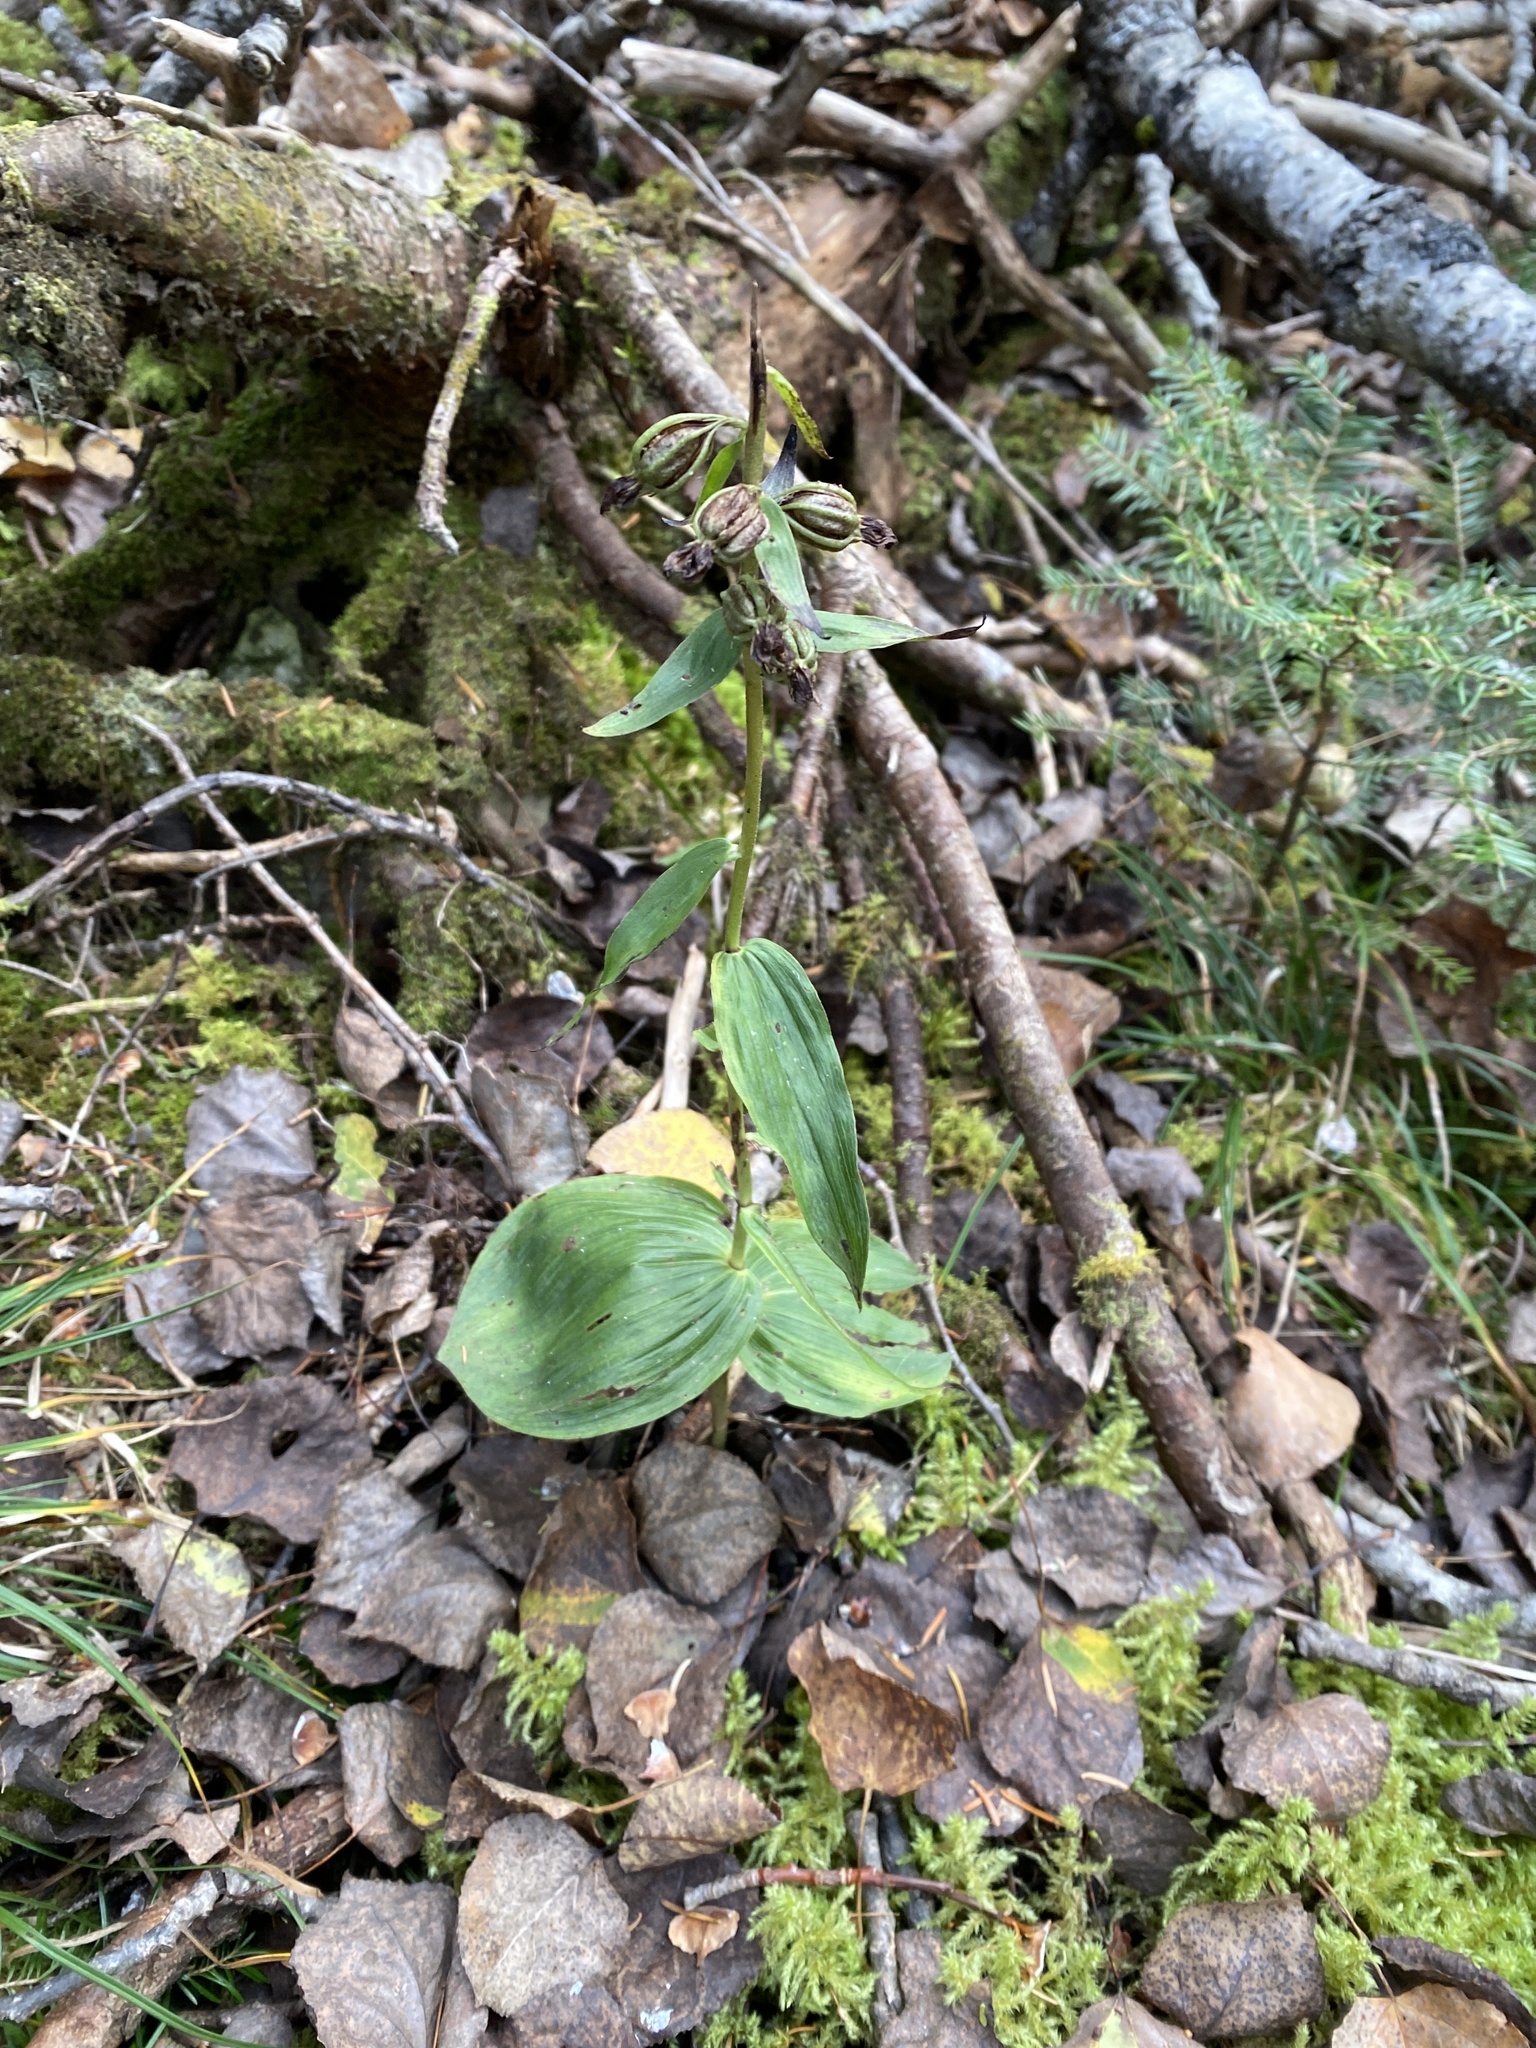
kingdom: Plantae
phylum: Tracheophyta
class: Liliopsida
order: Asparagales
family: Orchidaceae
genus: Epipactis
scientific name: Epipactis helleborine
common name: Broad-leaved helleborine
